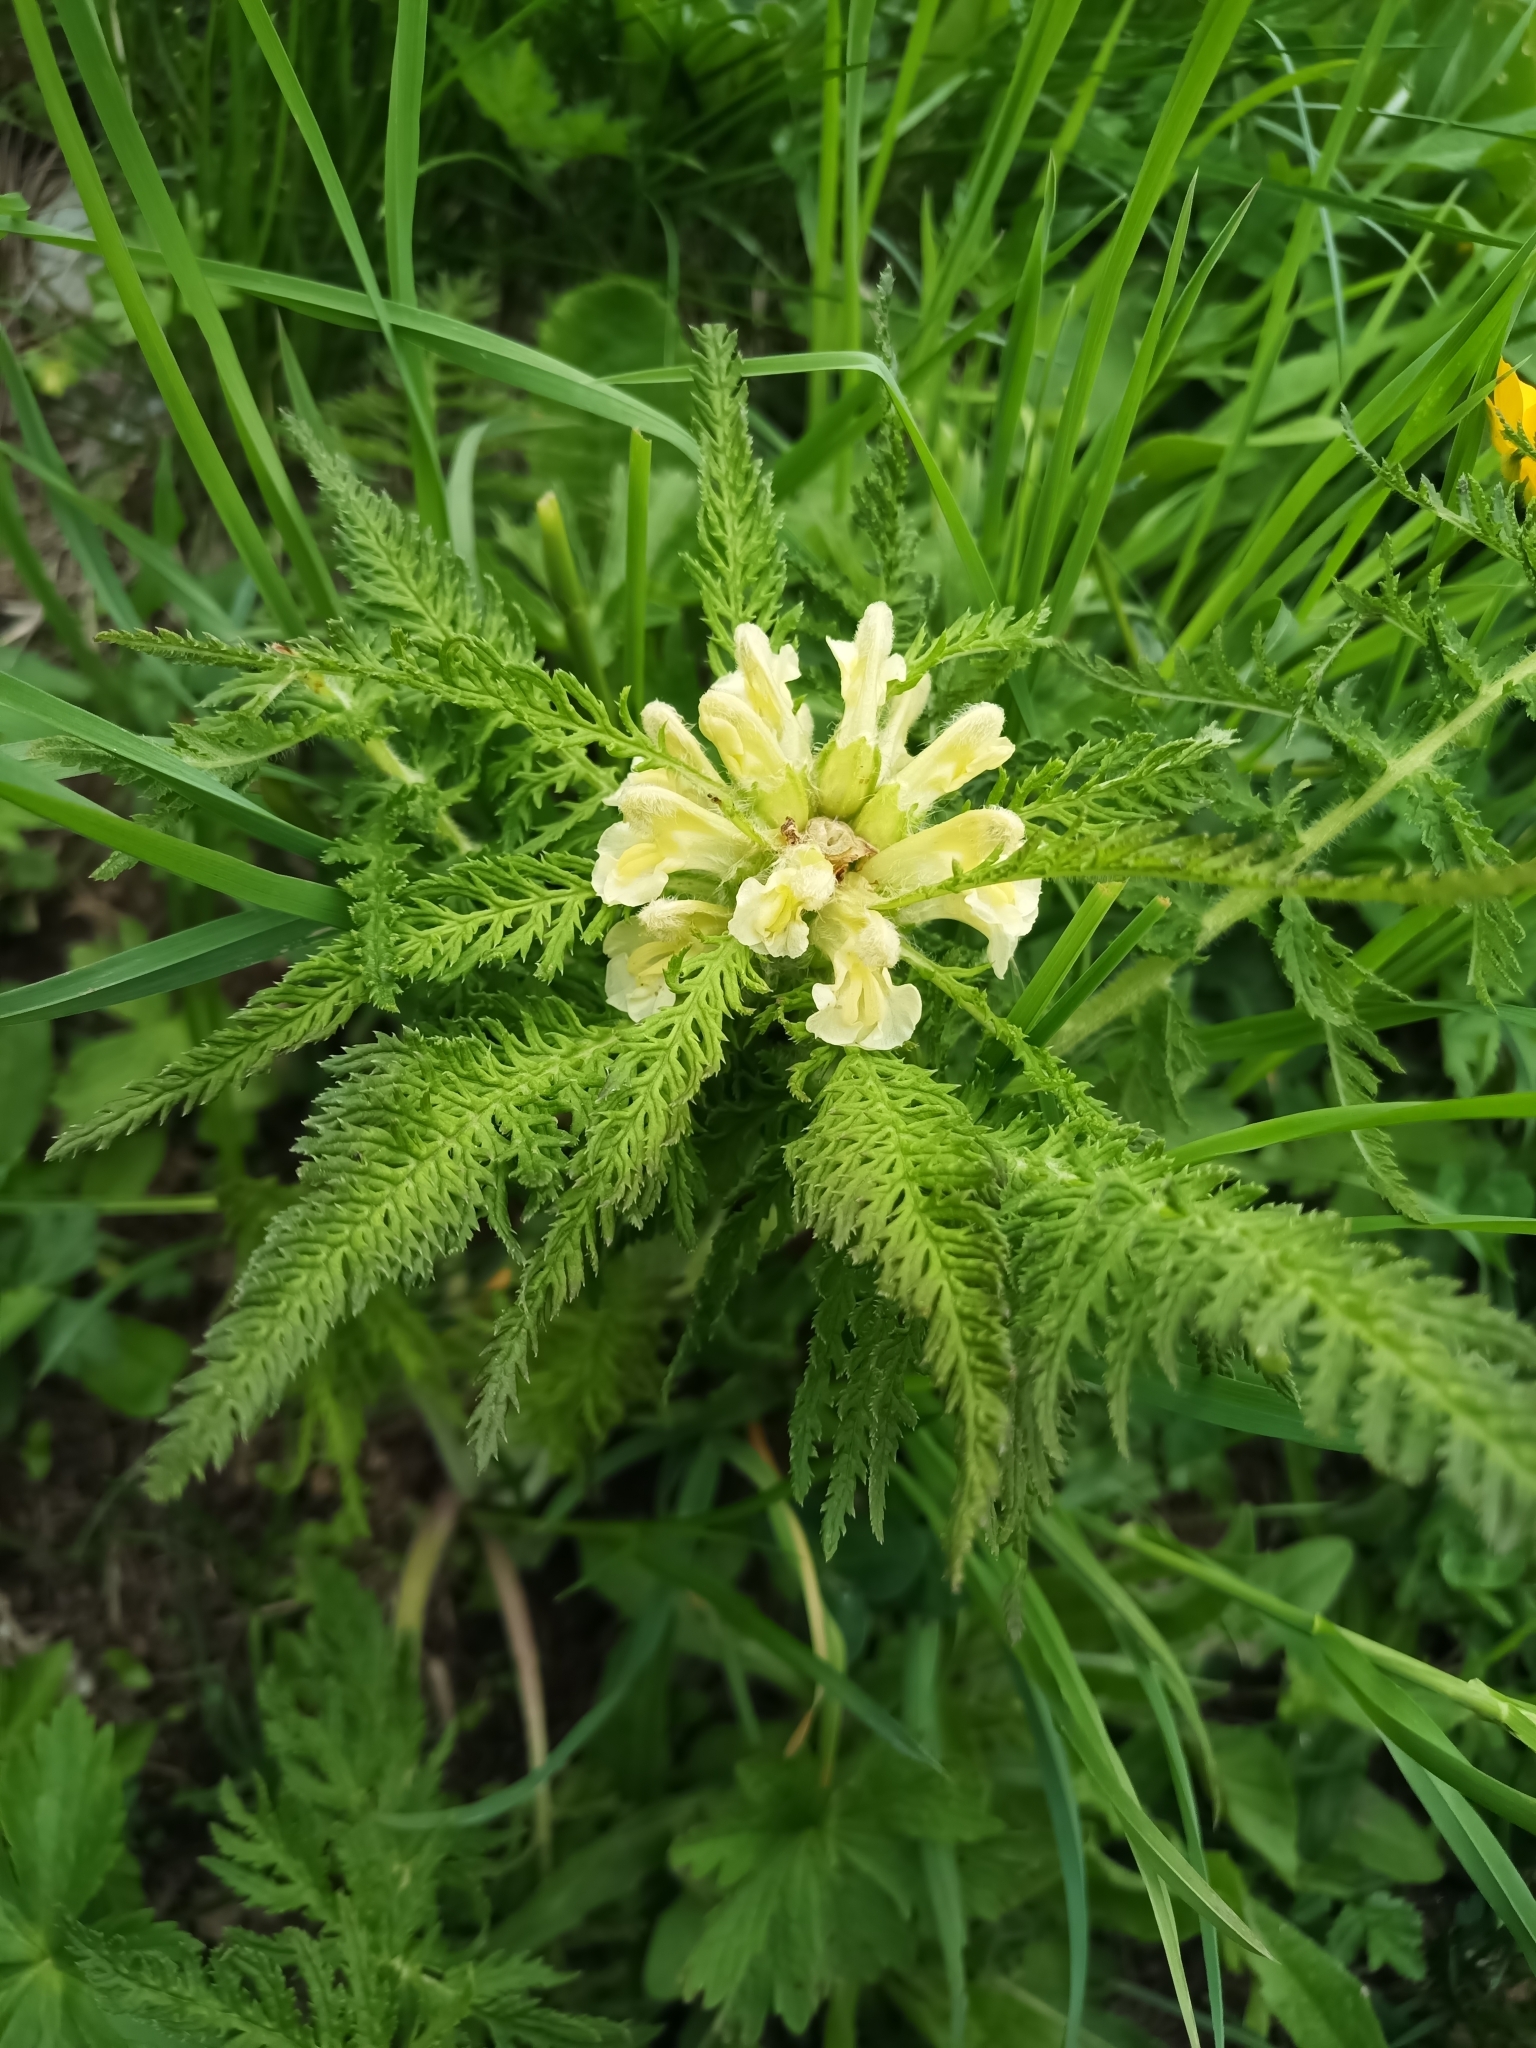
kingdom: Plantae
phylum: Tracheophyta
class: Magnoliopsida
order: Lamiales
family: Orobanchaceae
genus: Pedicularis
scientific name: Pedicularis foliosa
